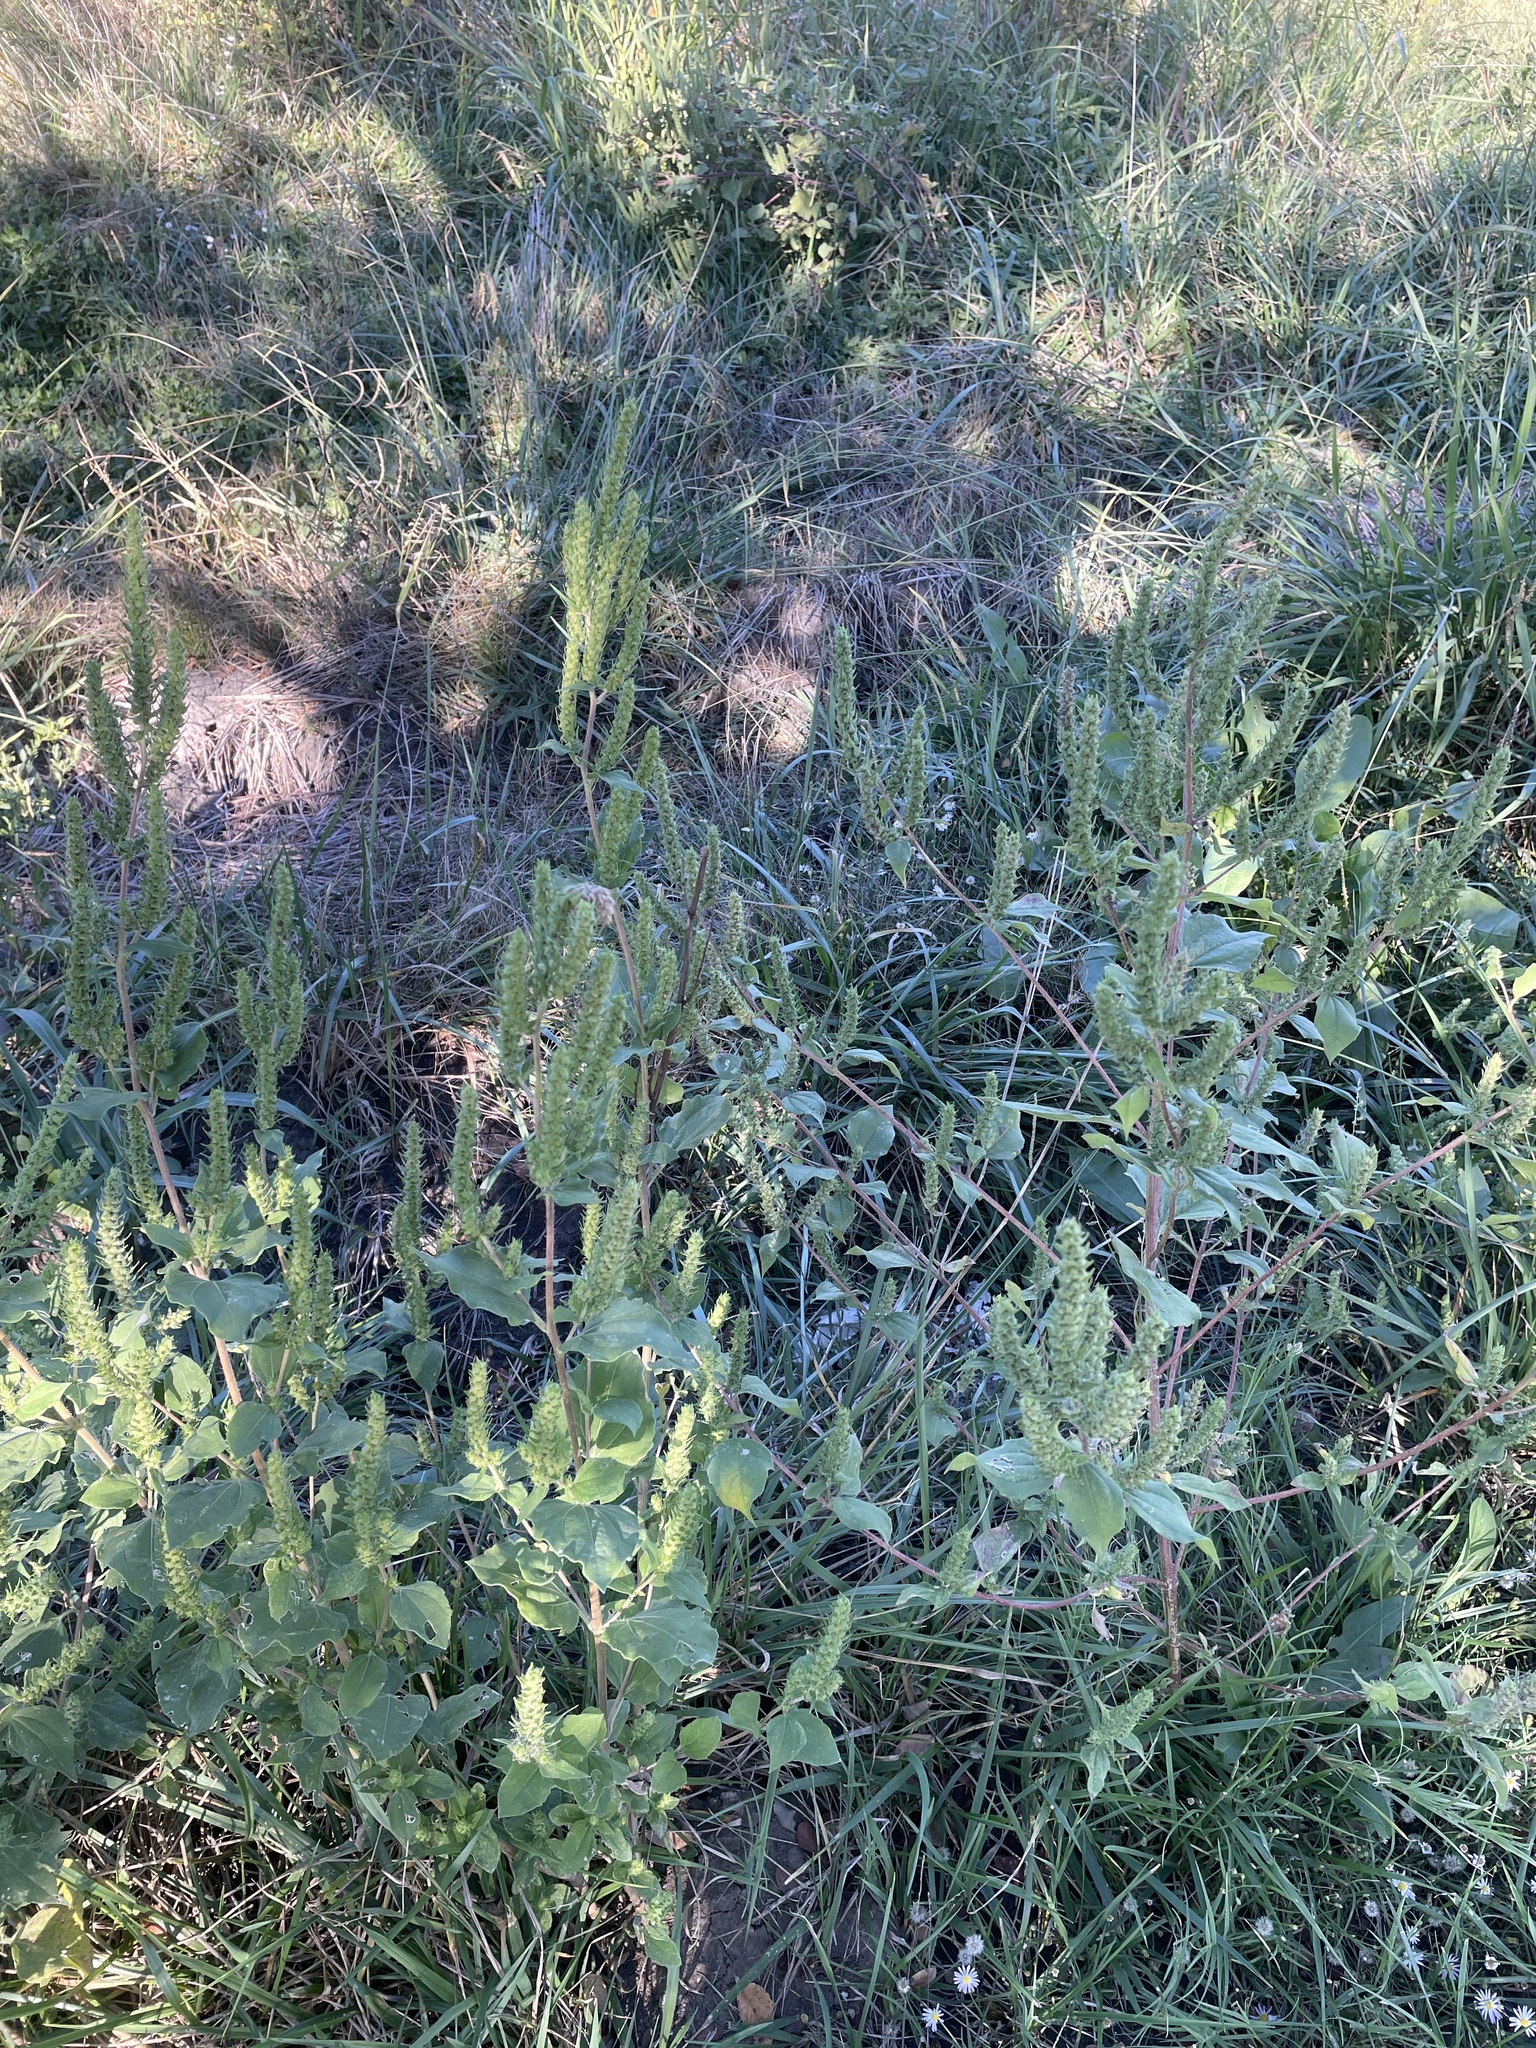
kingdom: Plantae
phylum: Tracheophyta
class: Magnoliopsida
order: Asterales
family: Asteraceae
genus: Iva
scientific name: Iva annua
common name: Marsh-elder
